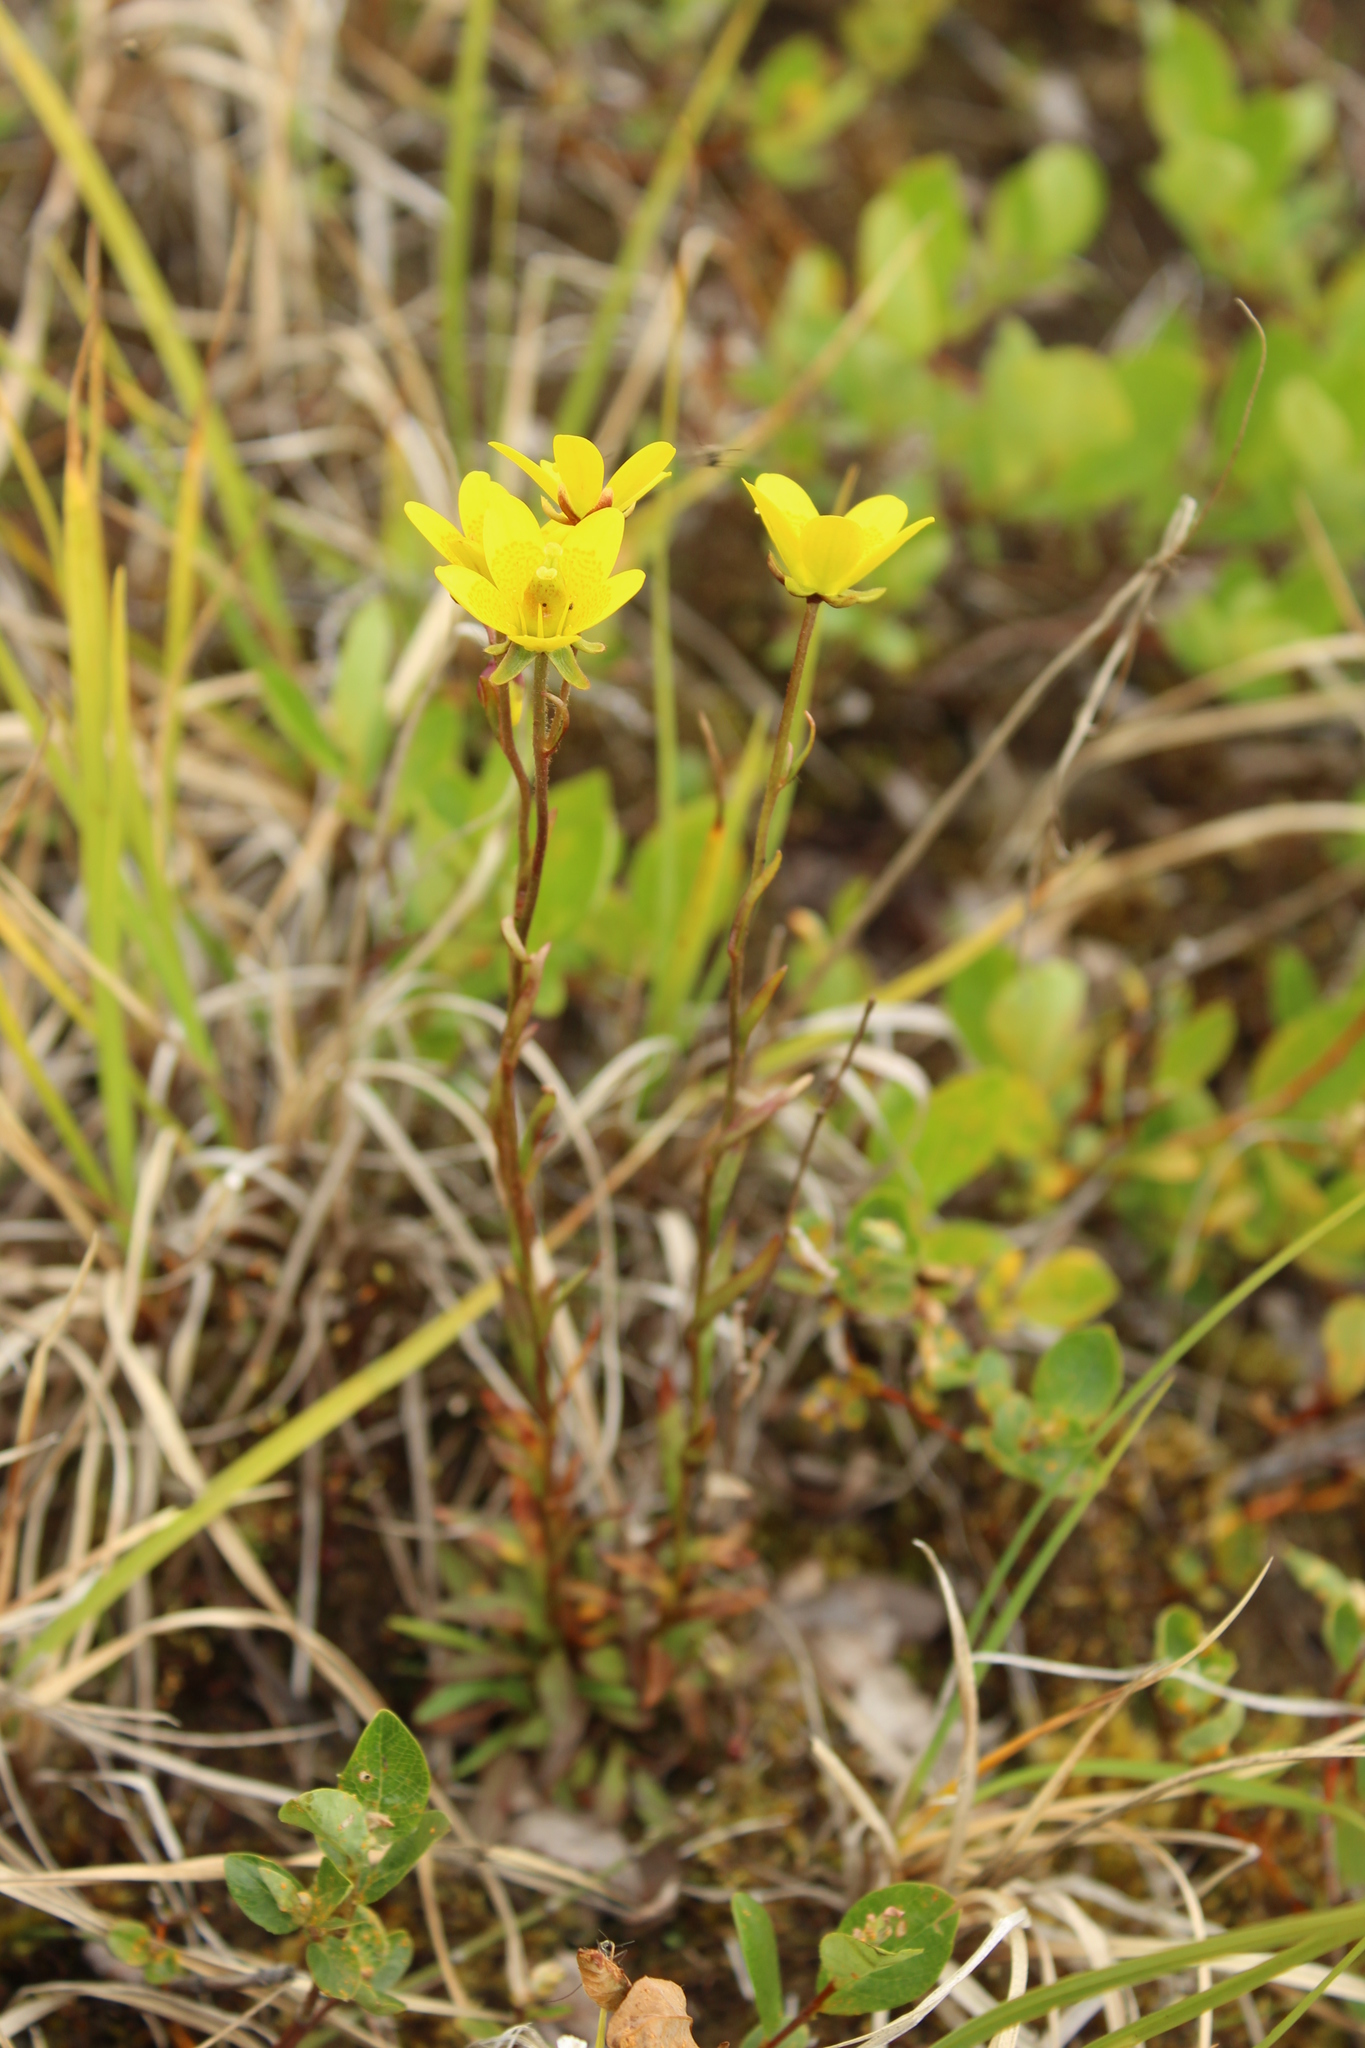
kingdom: Plantae
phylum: Tracheophyta
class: Magnoliopsida
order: Saxifragales
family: Saxifragaceae
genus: Saxifraga
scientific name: Saxifraga hirculus
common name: Yellow marsh saxifrage
